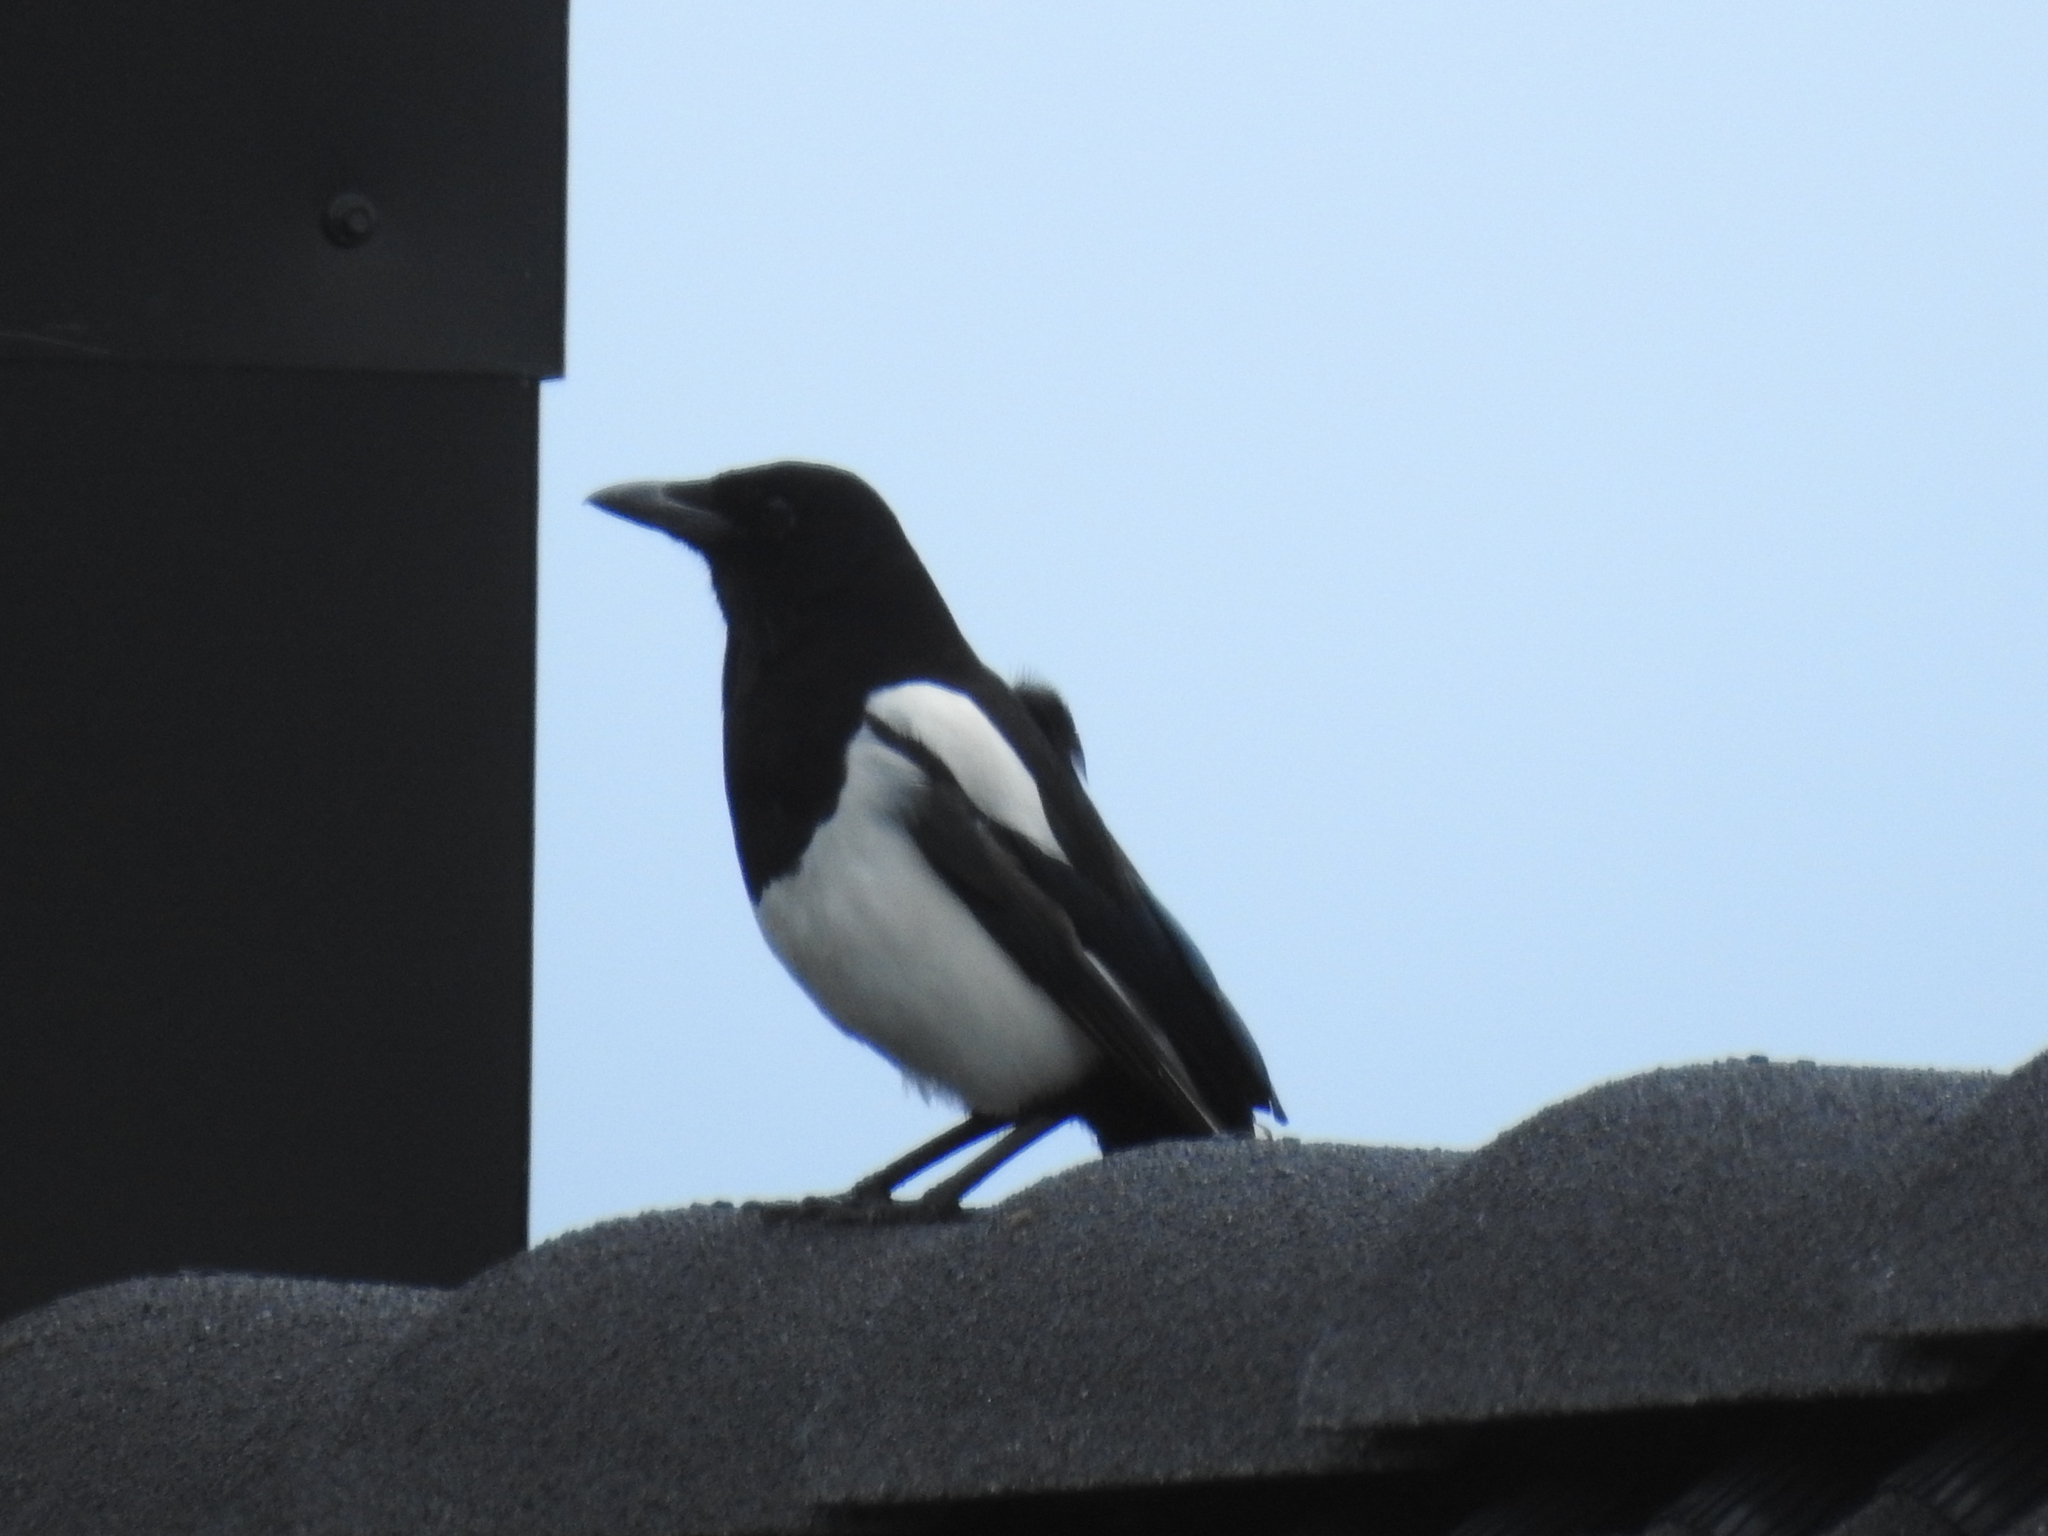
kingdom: Animalia
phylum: Chordata
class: Aves
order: Passeriformes
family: Corvidae
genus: Pica
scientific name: Pica pica
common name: Eurasian magpie
